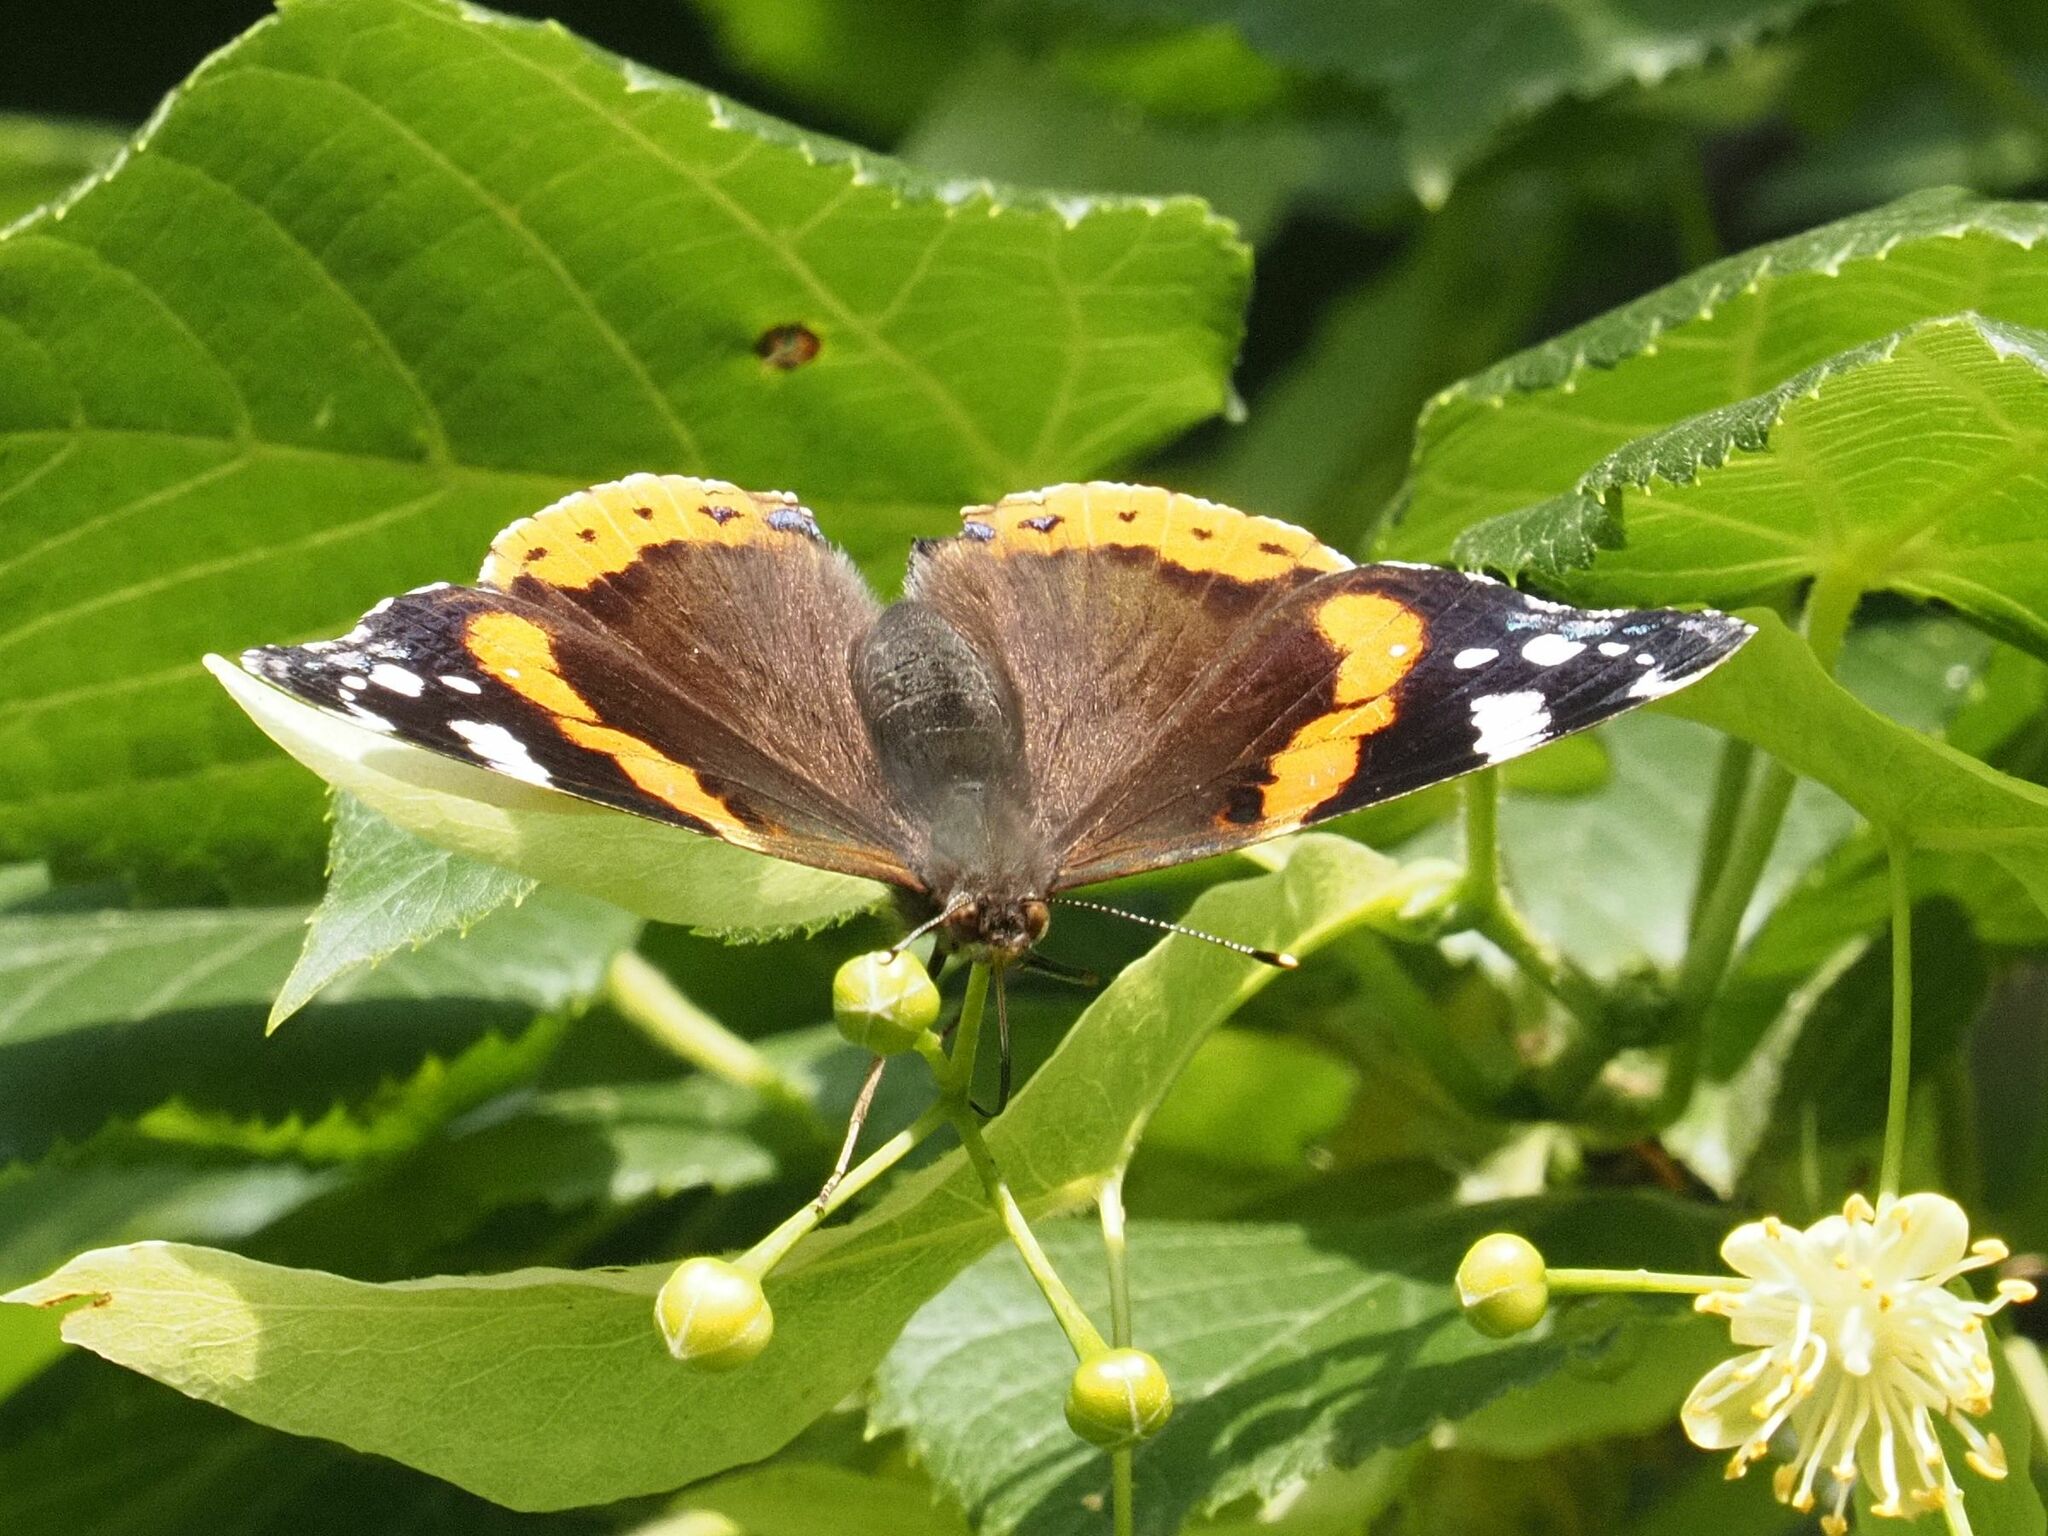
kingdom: Animalia
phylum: Arthropoda
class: Insecta
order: Lepidoptera
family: Nymphalidae
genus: Vanessa
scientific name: Vanessa atalanta
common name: Red admiral
